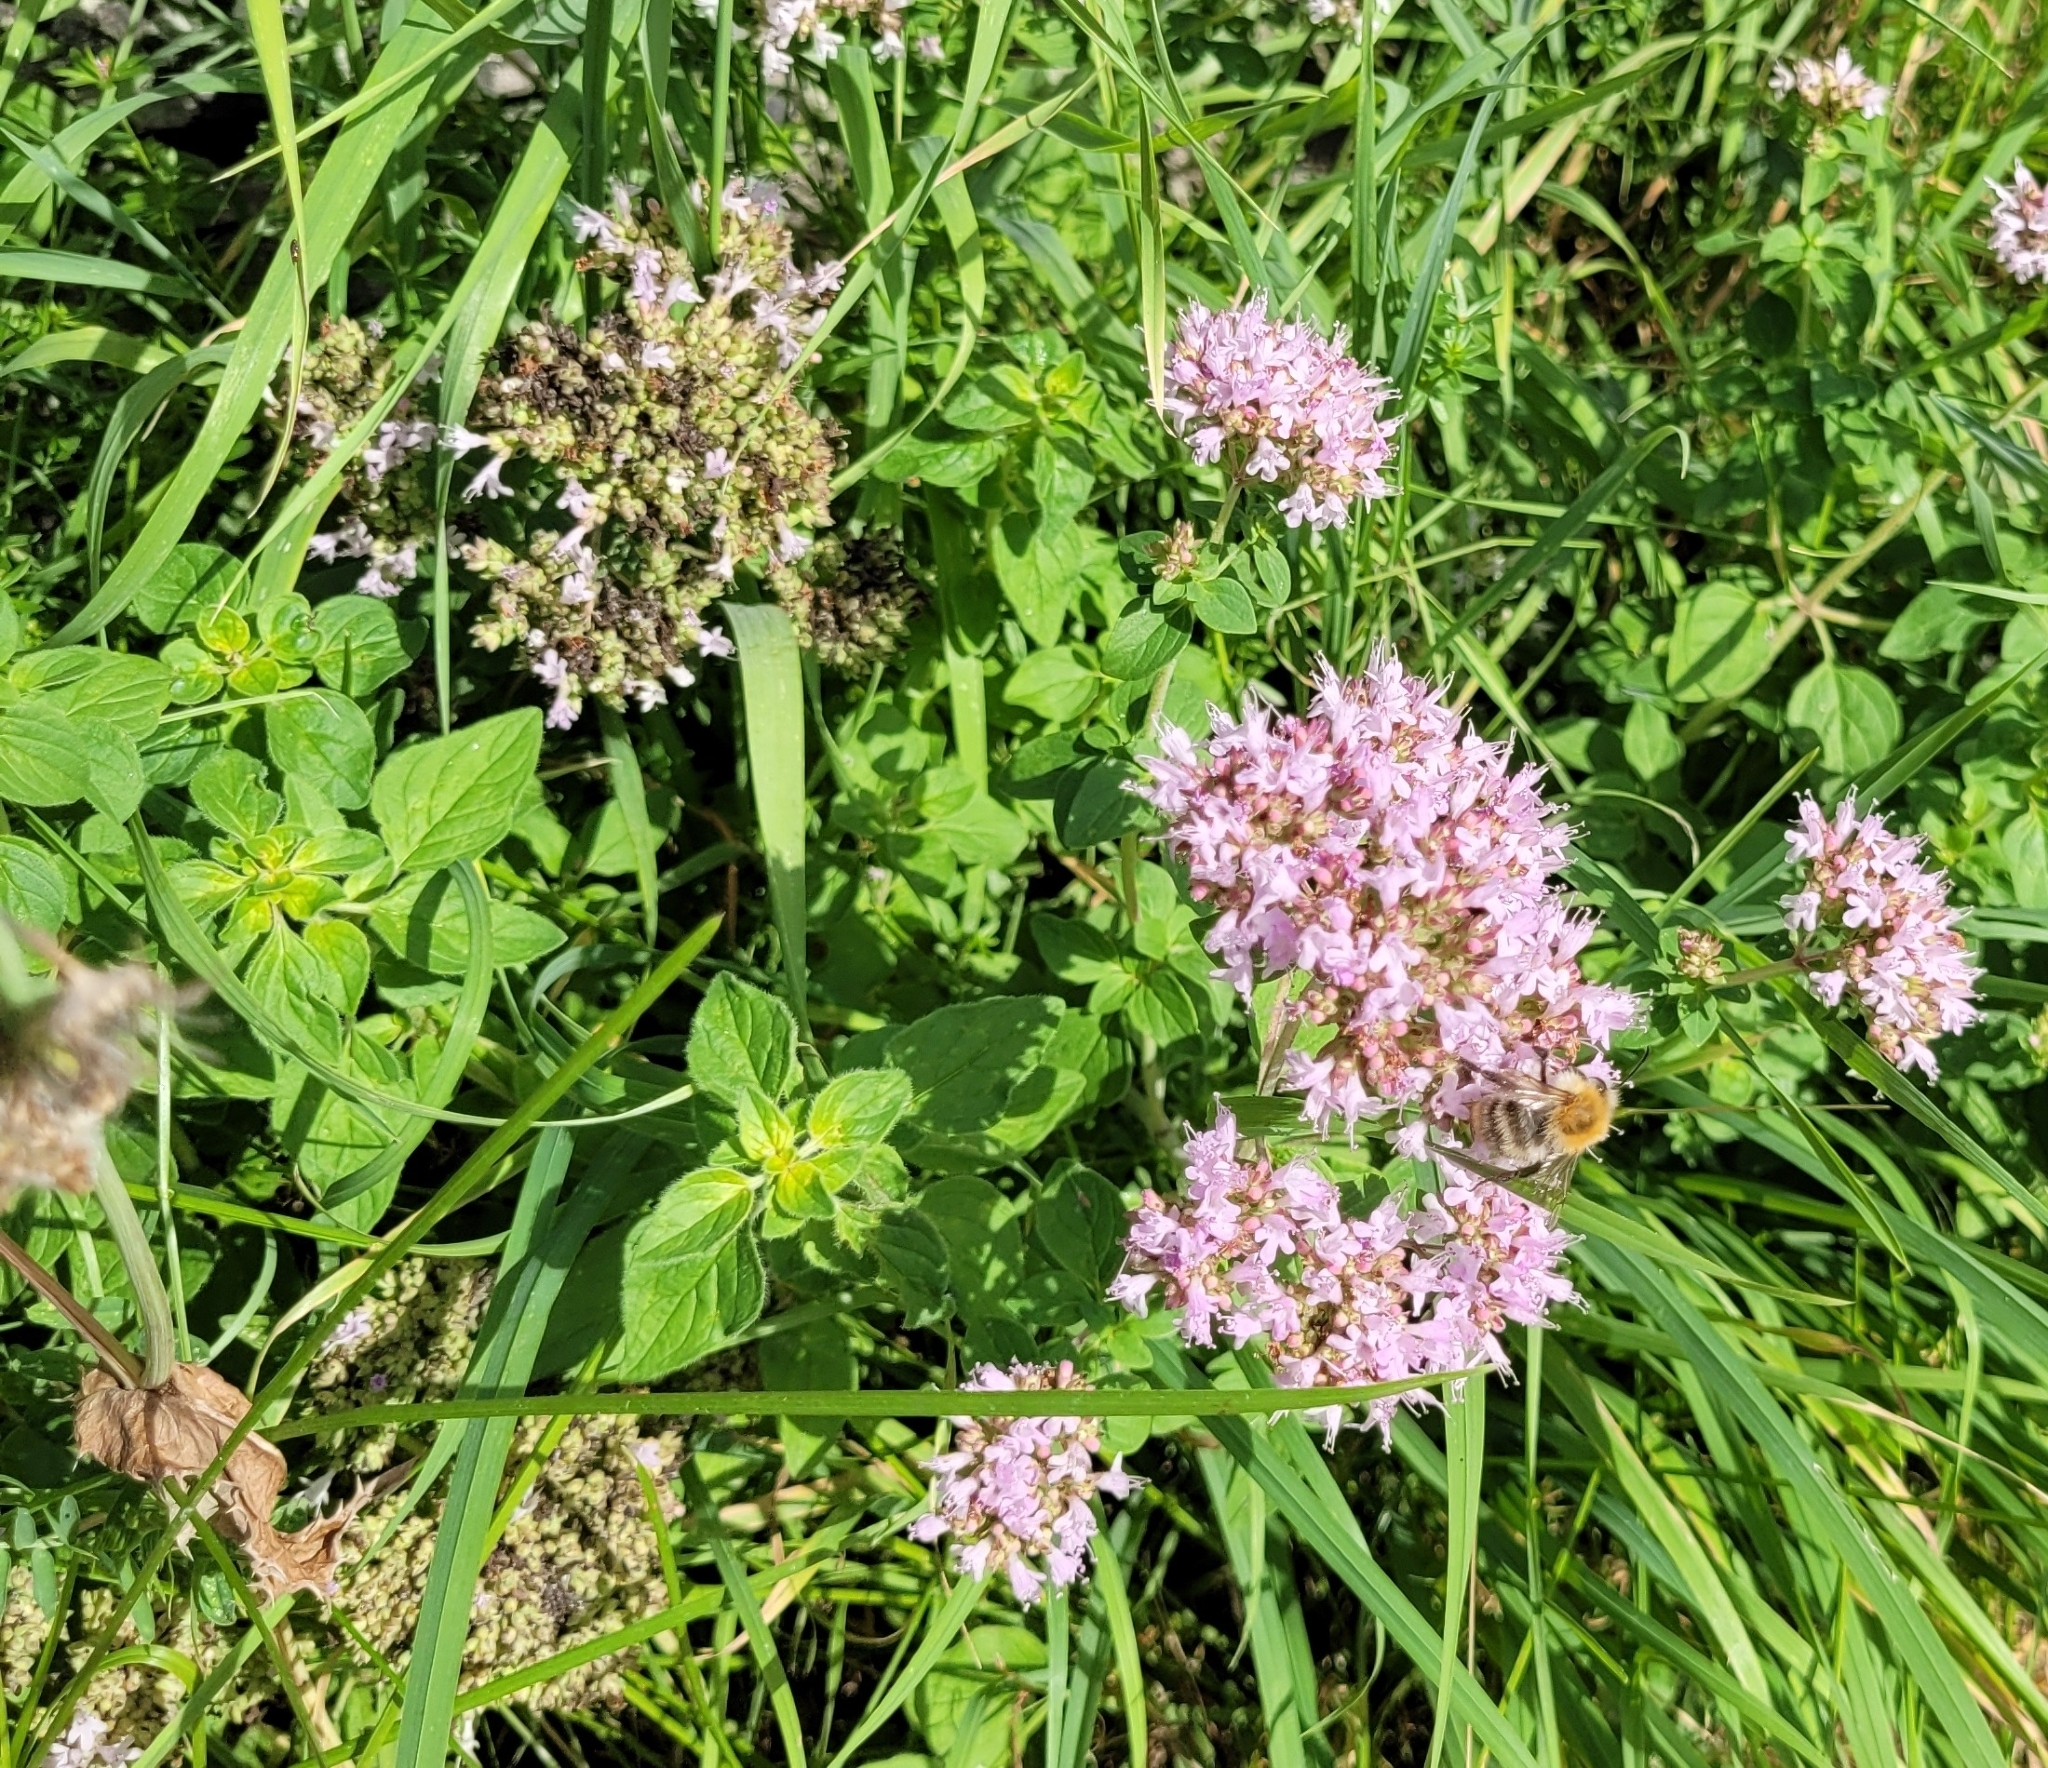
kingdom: Plantae
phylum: Tracheophyta
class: Magnoliopsida
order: Lamiales
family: Lamiaceae
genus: Origanum
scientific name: Origanum vulgare
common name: Wild marjoram
